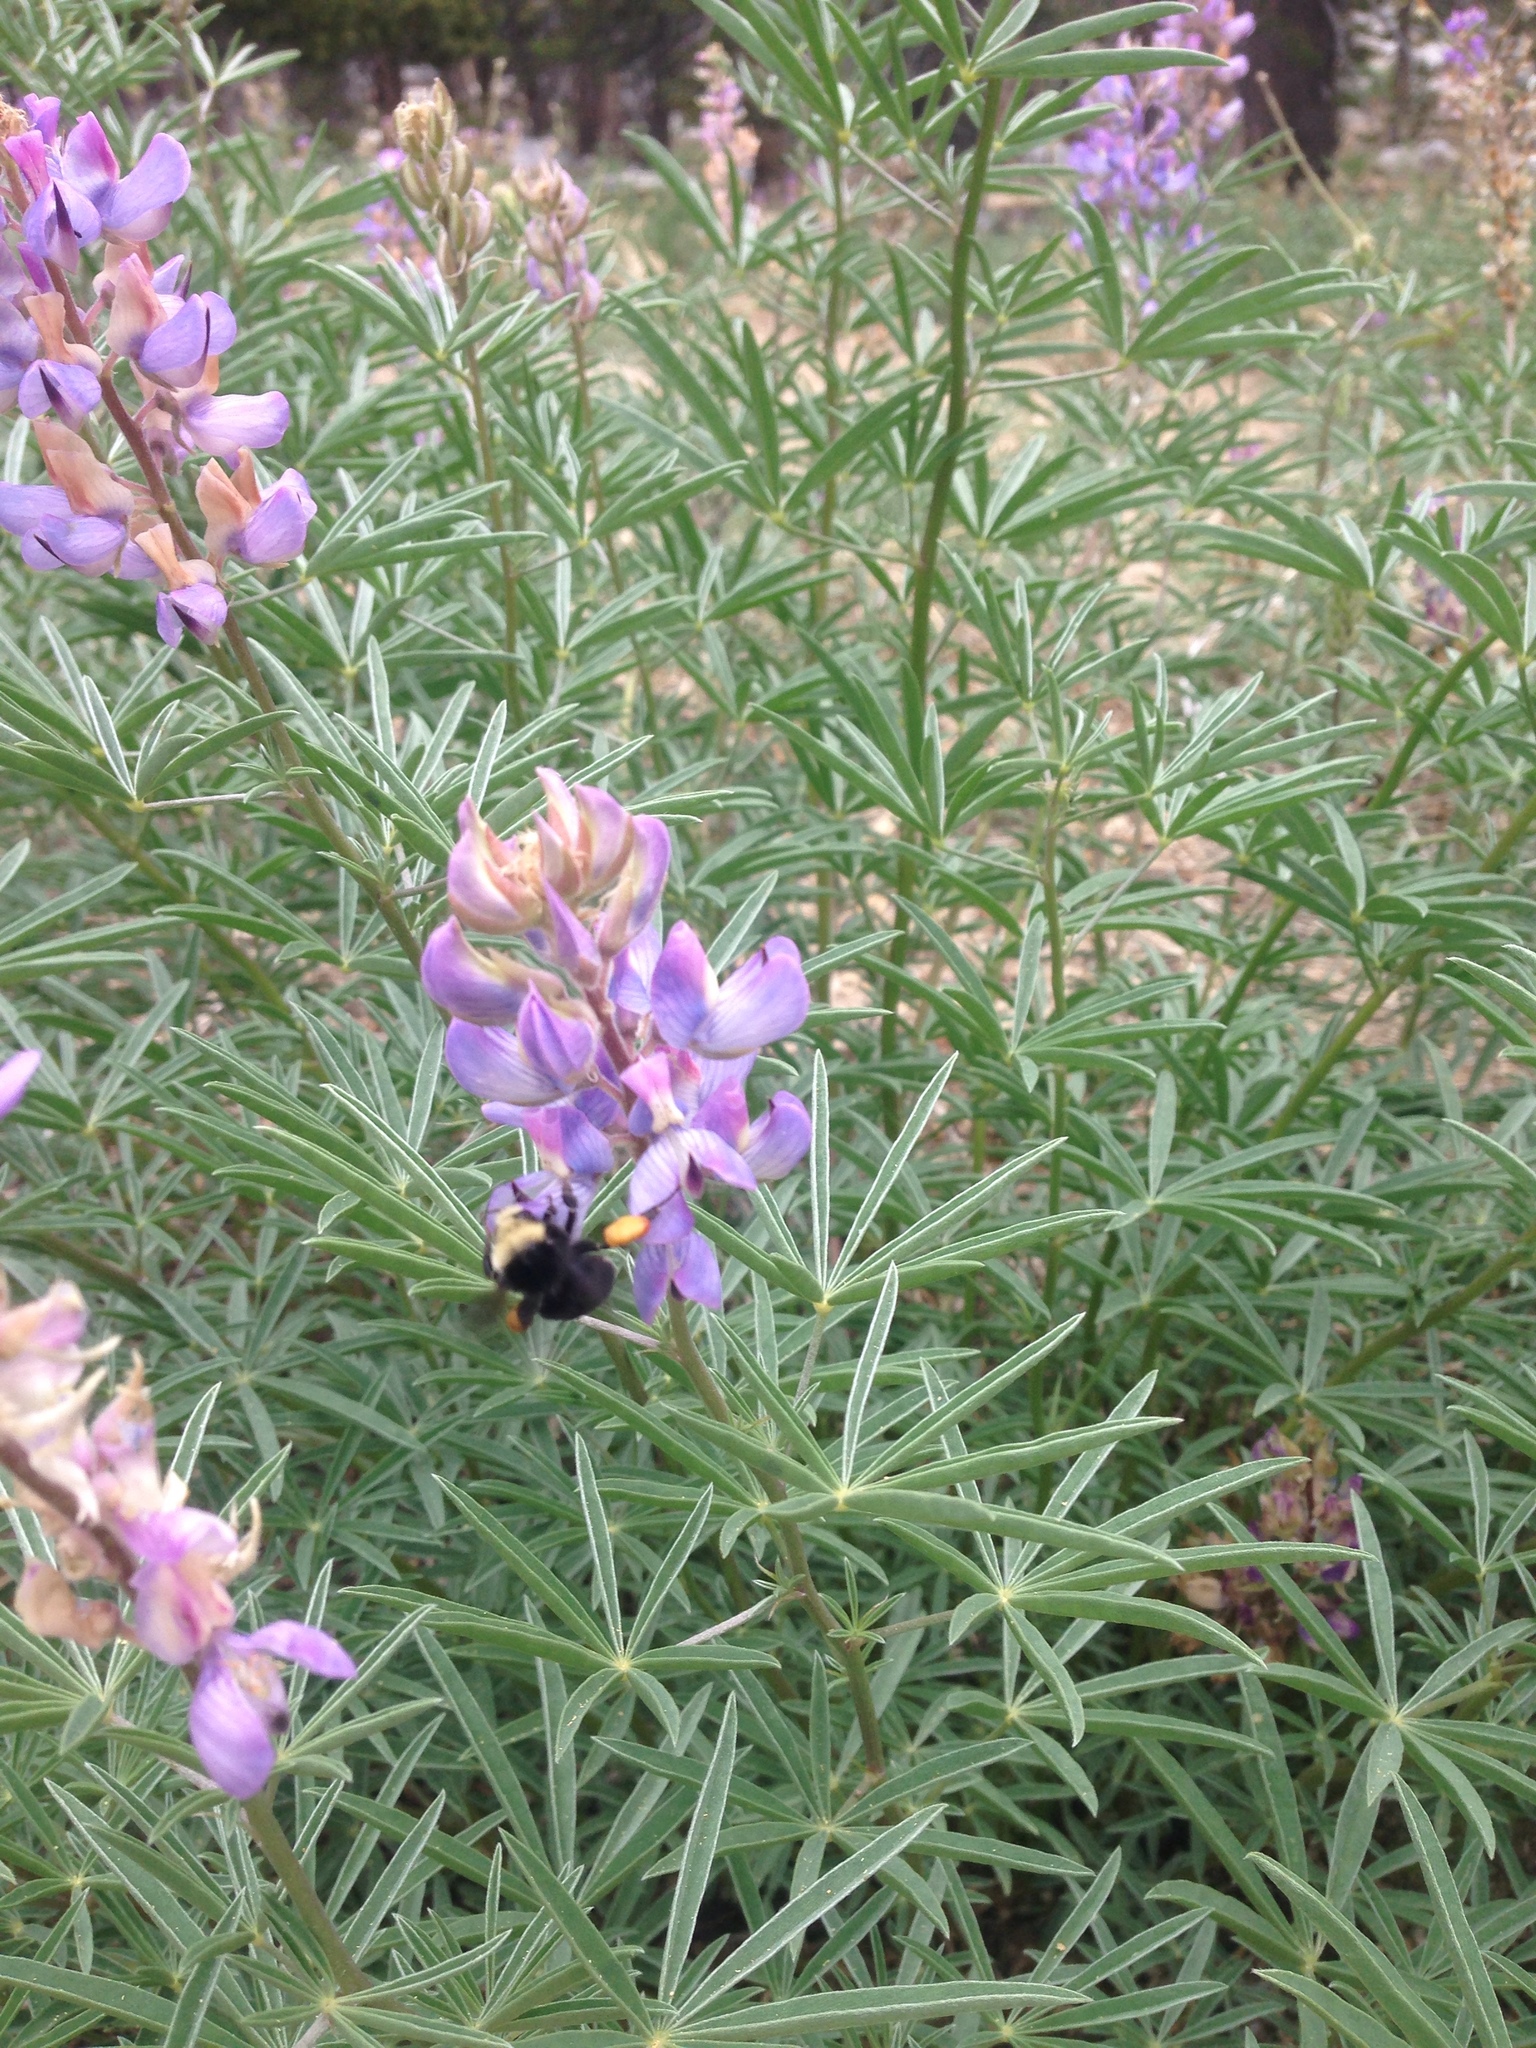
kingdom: Animalia
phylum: Arthropoda
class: Insecta
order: Hymenoptera
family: Apidae
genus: Bombus
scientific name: Bombus vosnesenskii
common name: Vosnesensky bumble bee
